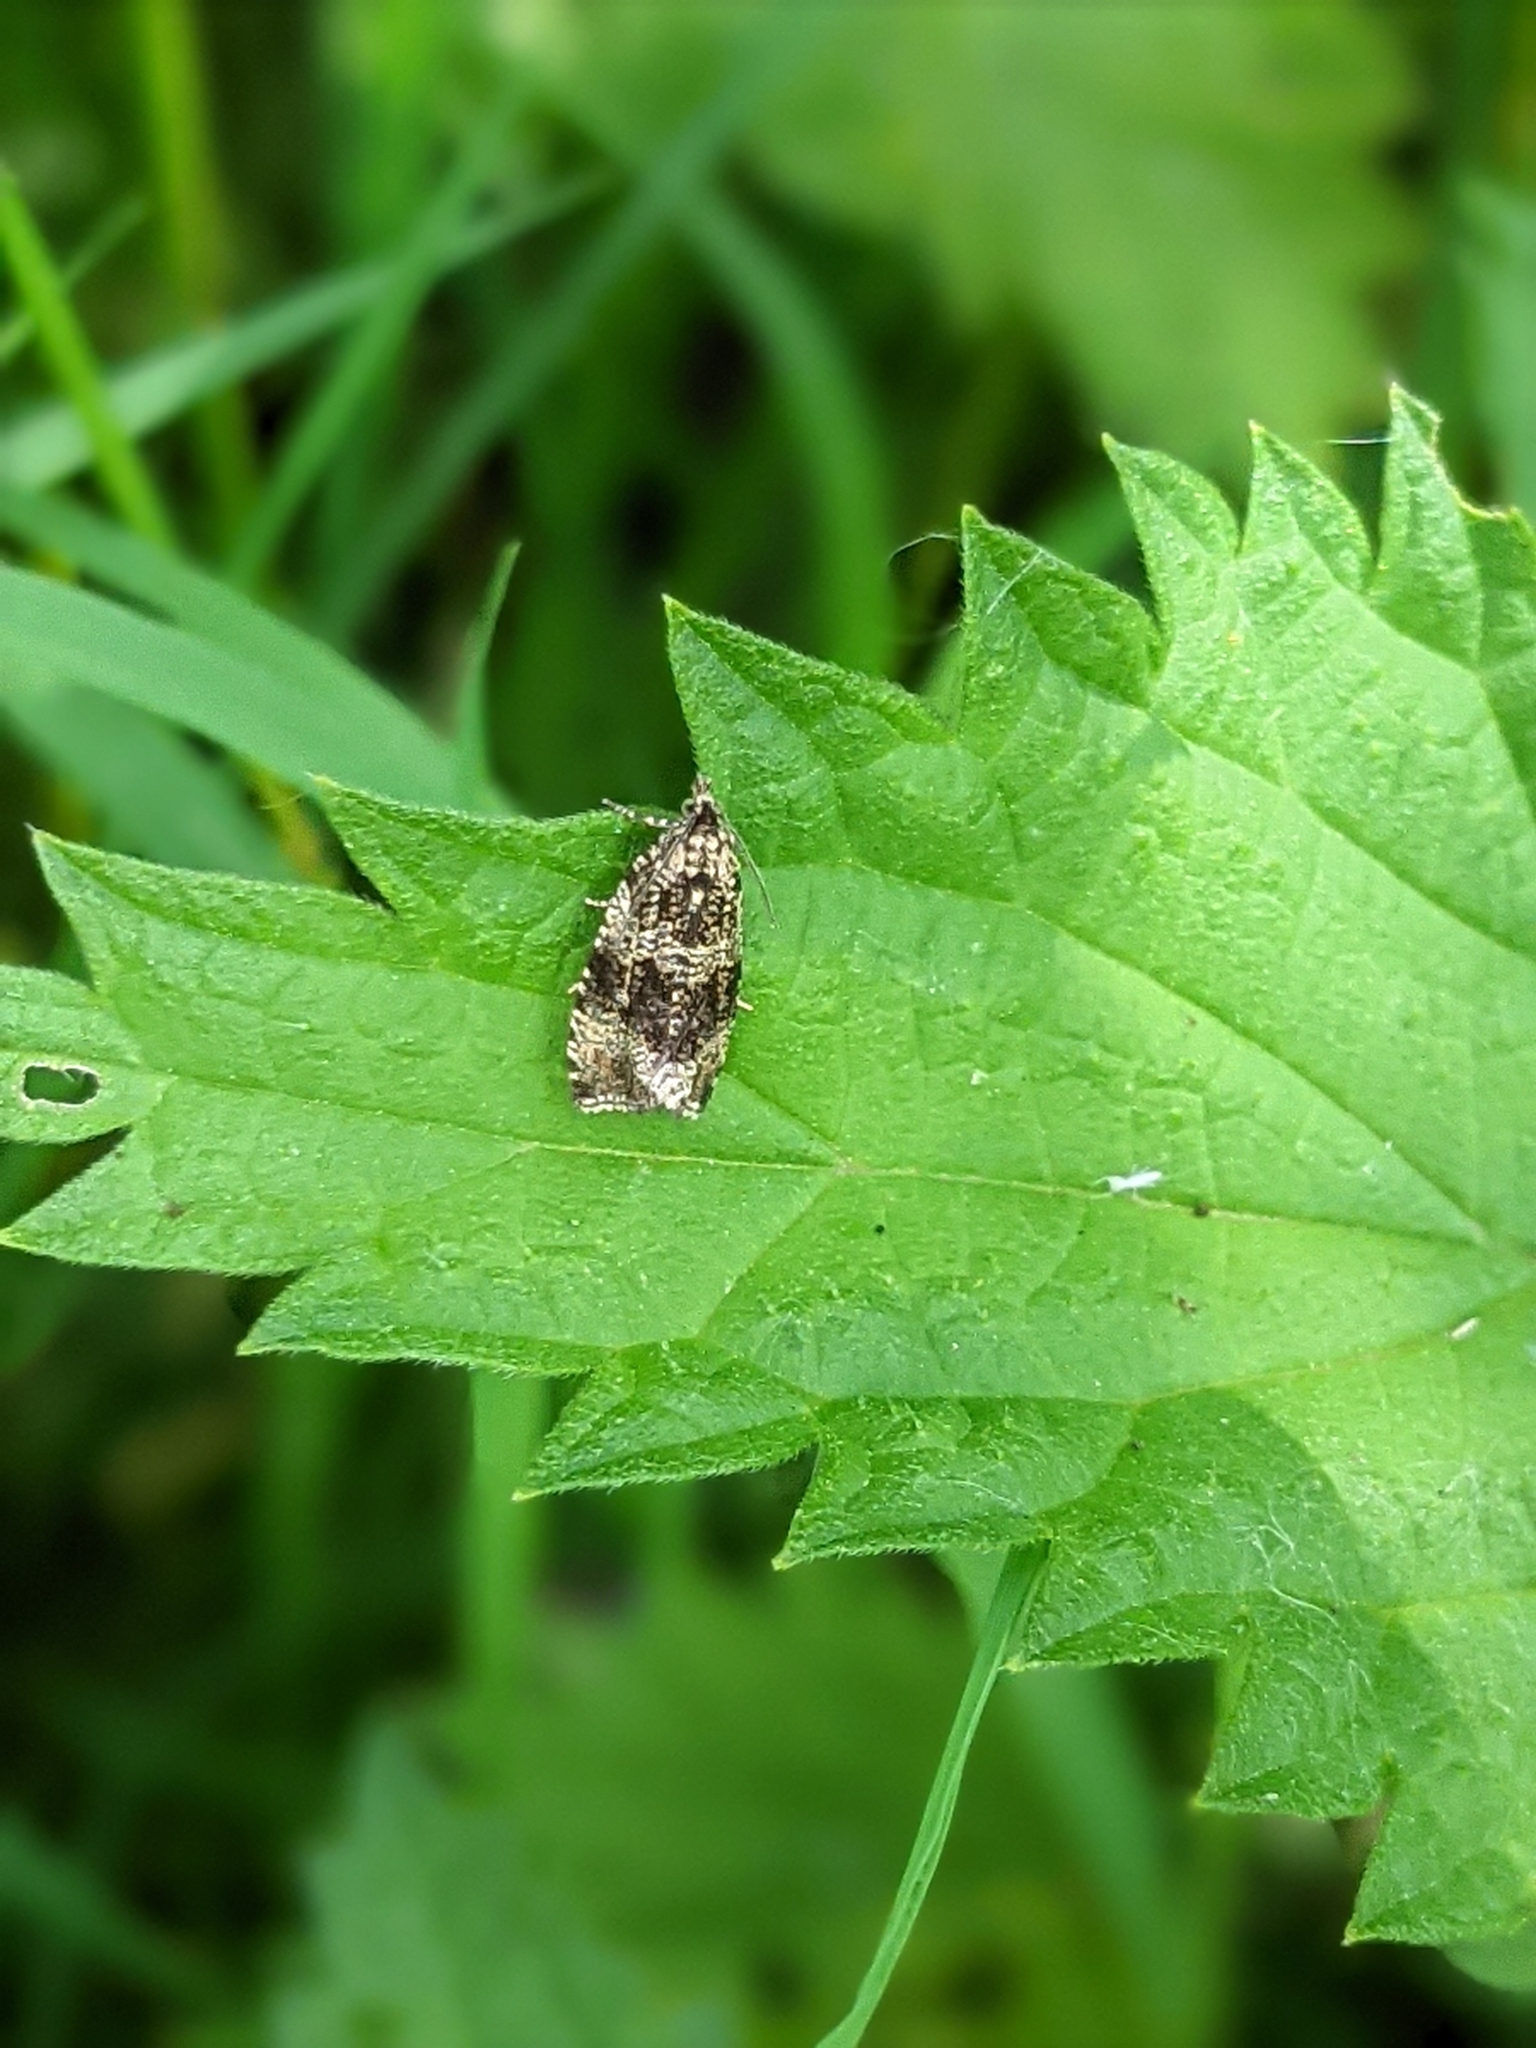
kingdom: Animalia
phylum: Arthropoda
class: Insecta
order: Lepidoptera
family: Tortricidae
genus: Syricoris
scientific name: Syricoris lacunana
